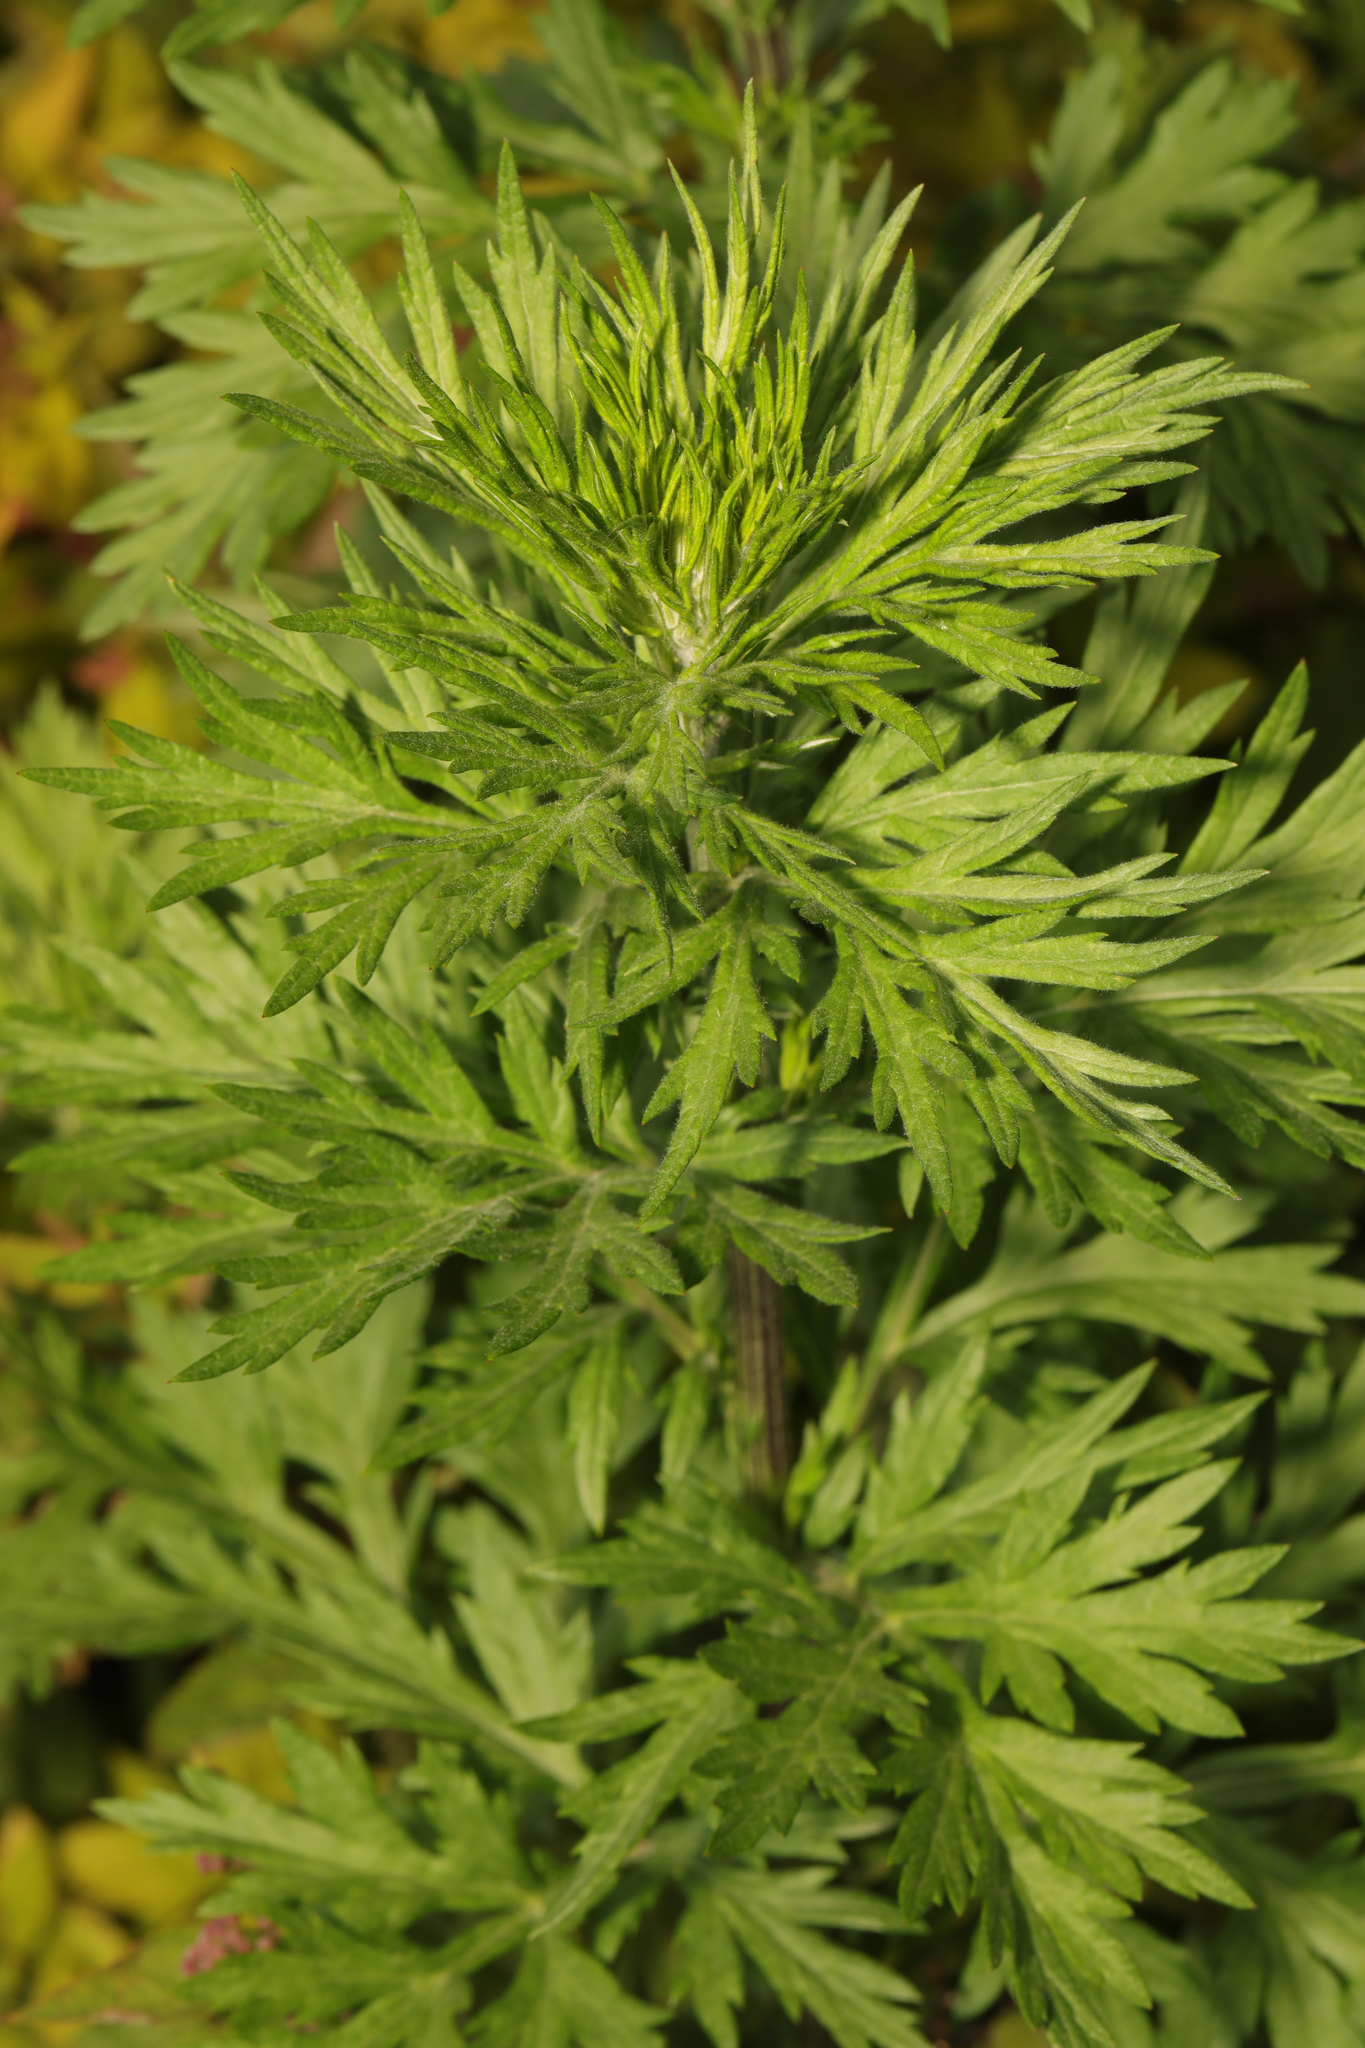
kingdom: Plantae
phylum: Tracheophyta
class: Magnoliopsida
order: Asterales
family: Asteraceae
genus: Artemisia
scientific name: Artemisia vulgaris
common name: Mugwort
